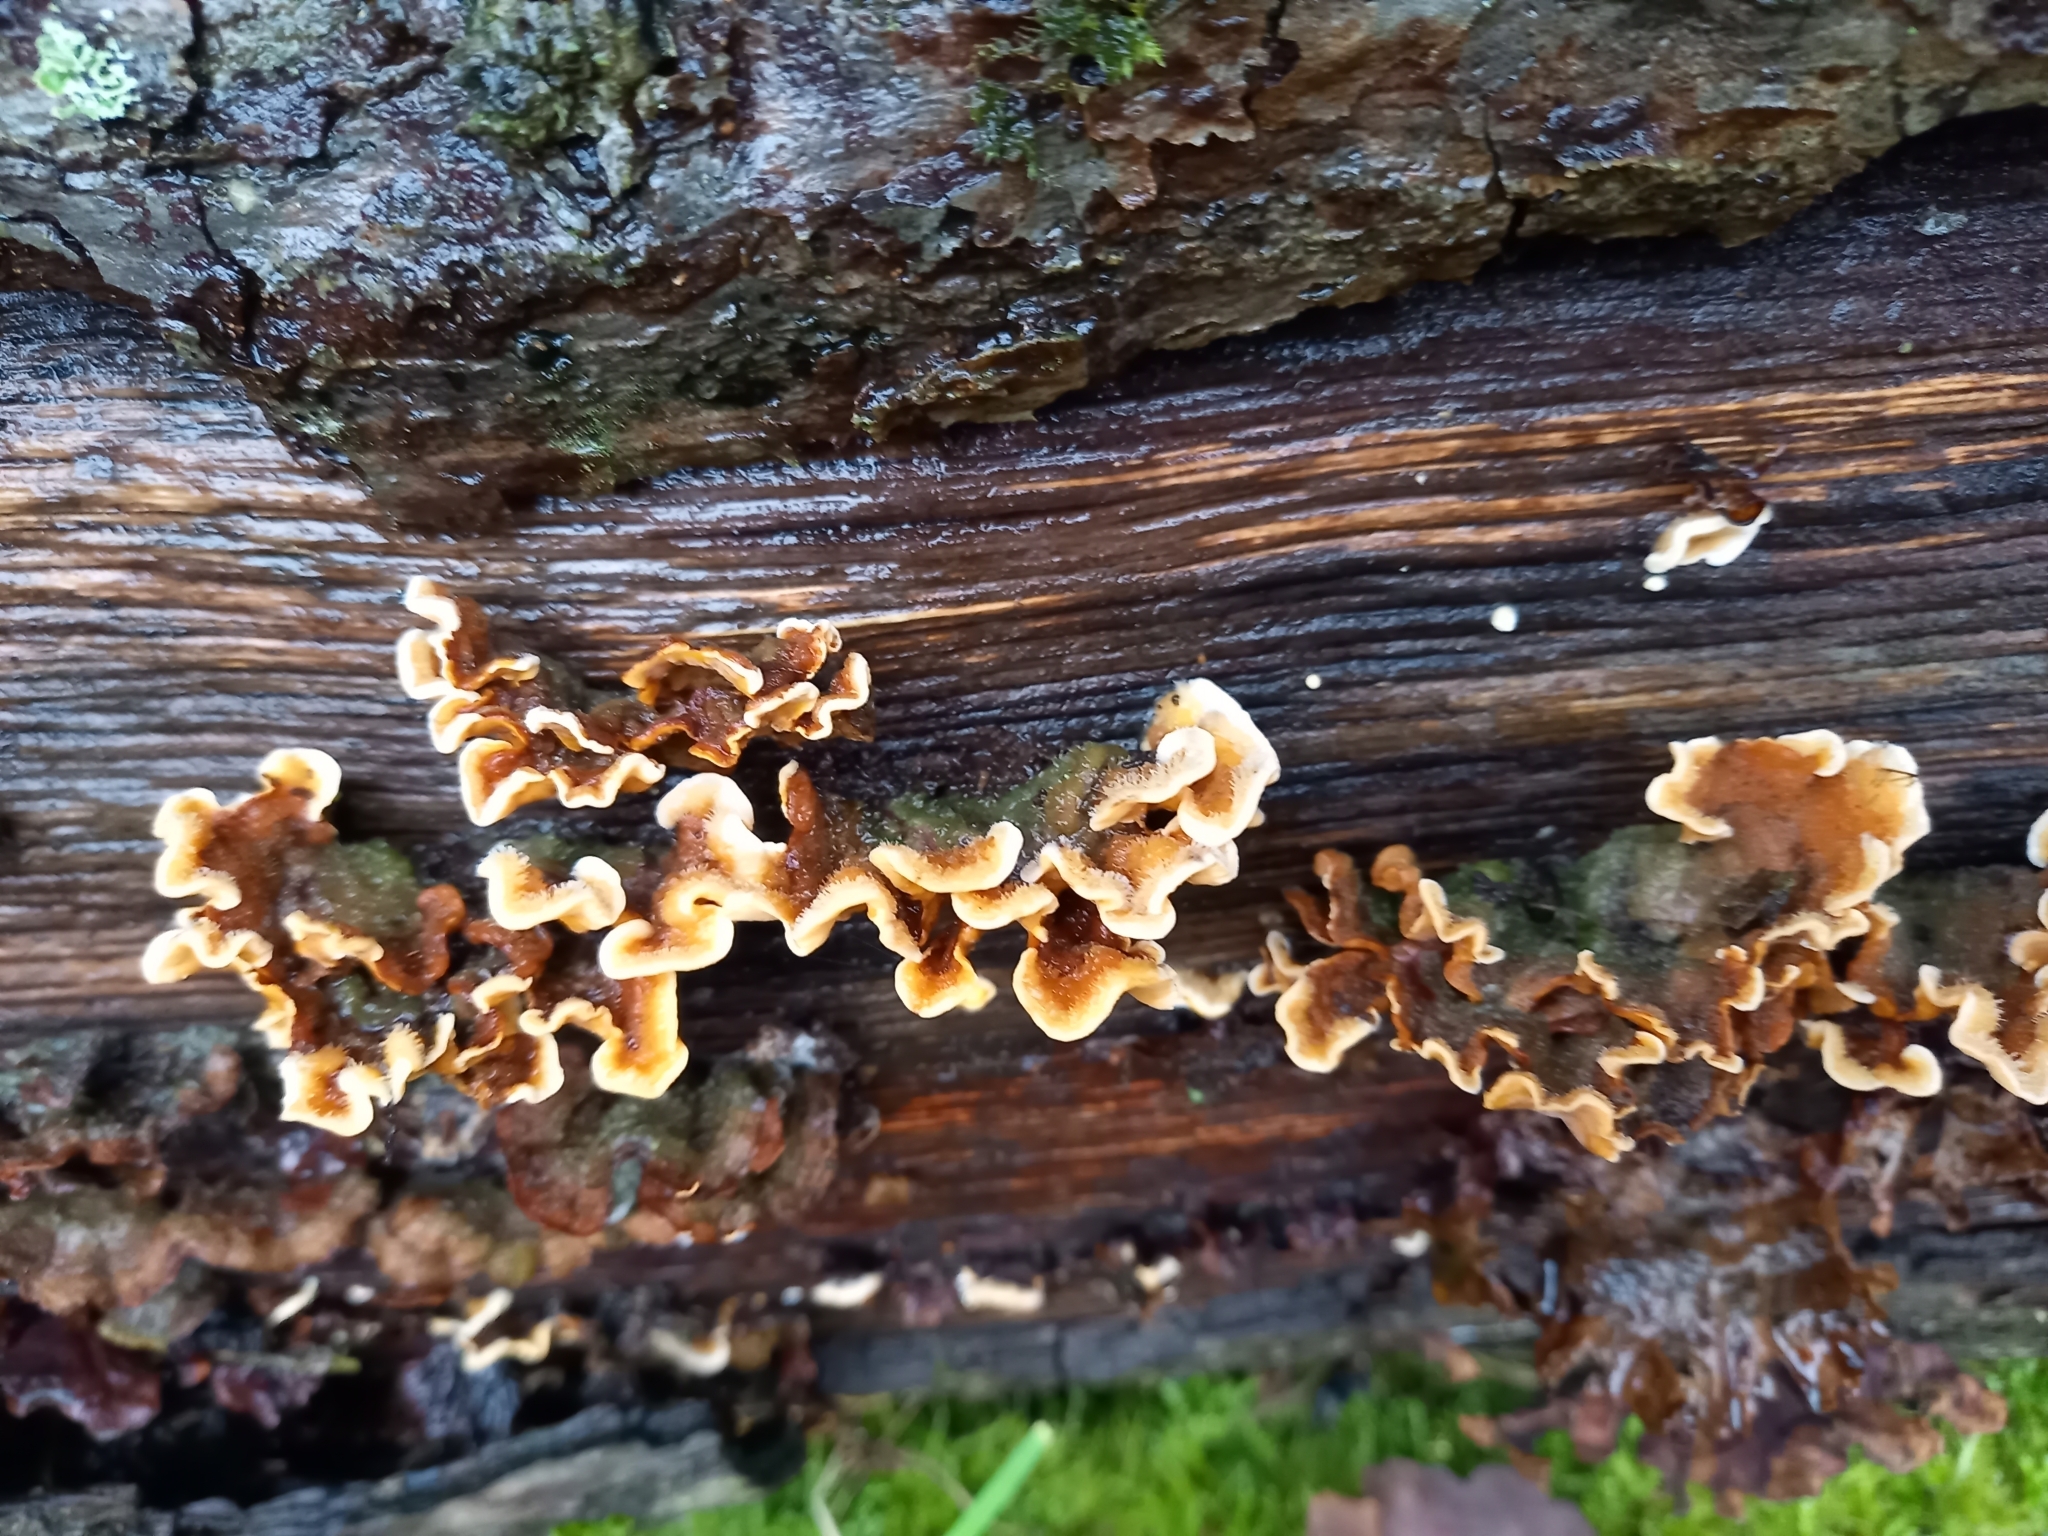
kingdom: Fungi
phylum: Basidiomycota
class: Agaricomycetes
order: Russulales
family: Stereaceae
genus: Stereum
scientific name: Stereum hirsutum
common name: Hairy curtain crust
